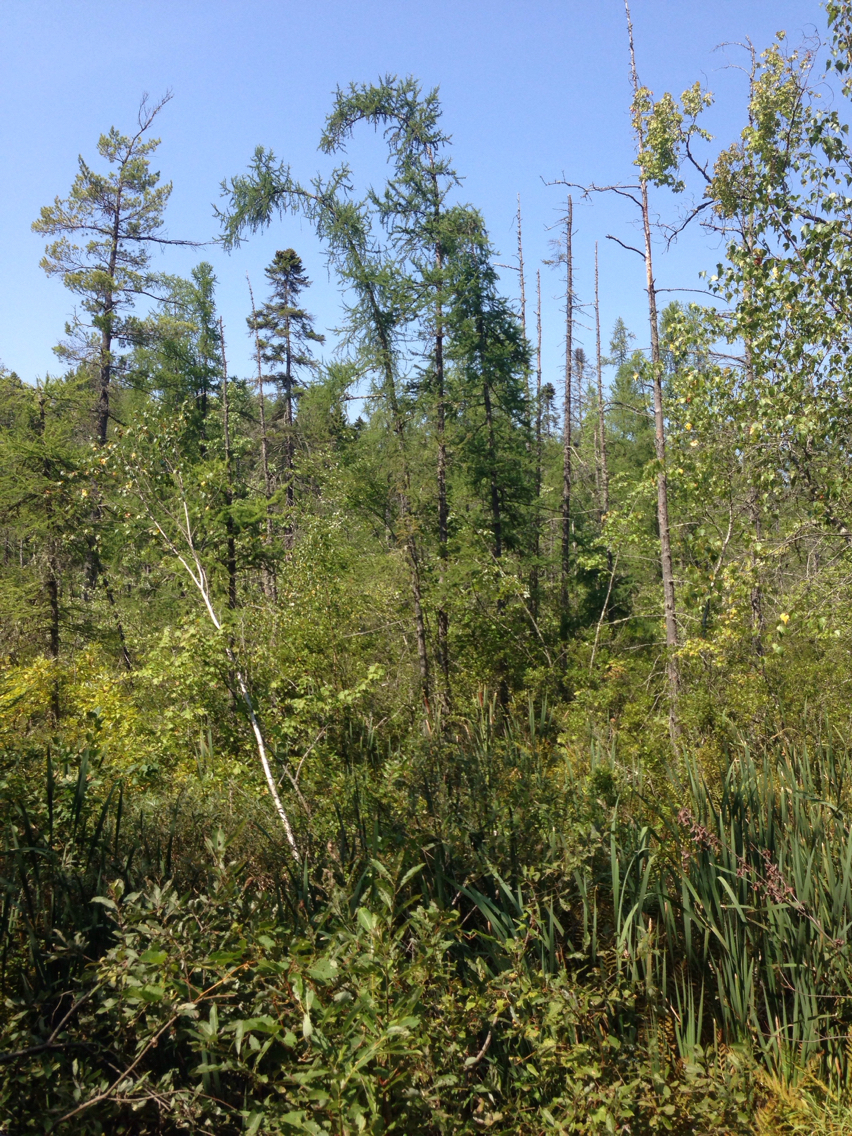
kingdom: Plantae
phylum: Tracheophyta
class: Pinopsida
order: Pinales
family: Pinaceae
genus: Larix
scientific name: Larix laricina
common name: American larch
